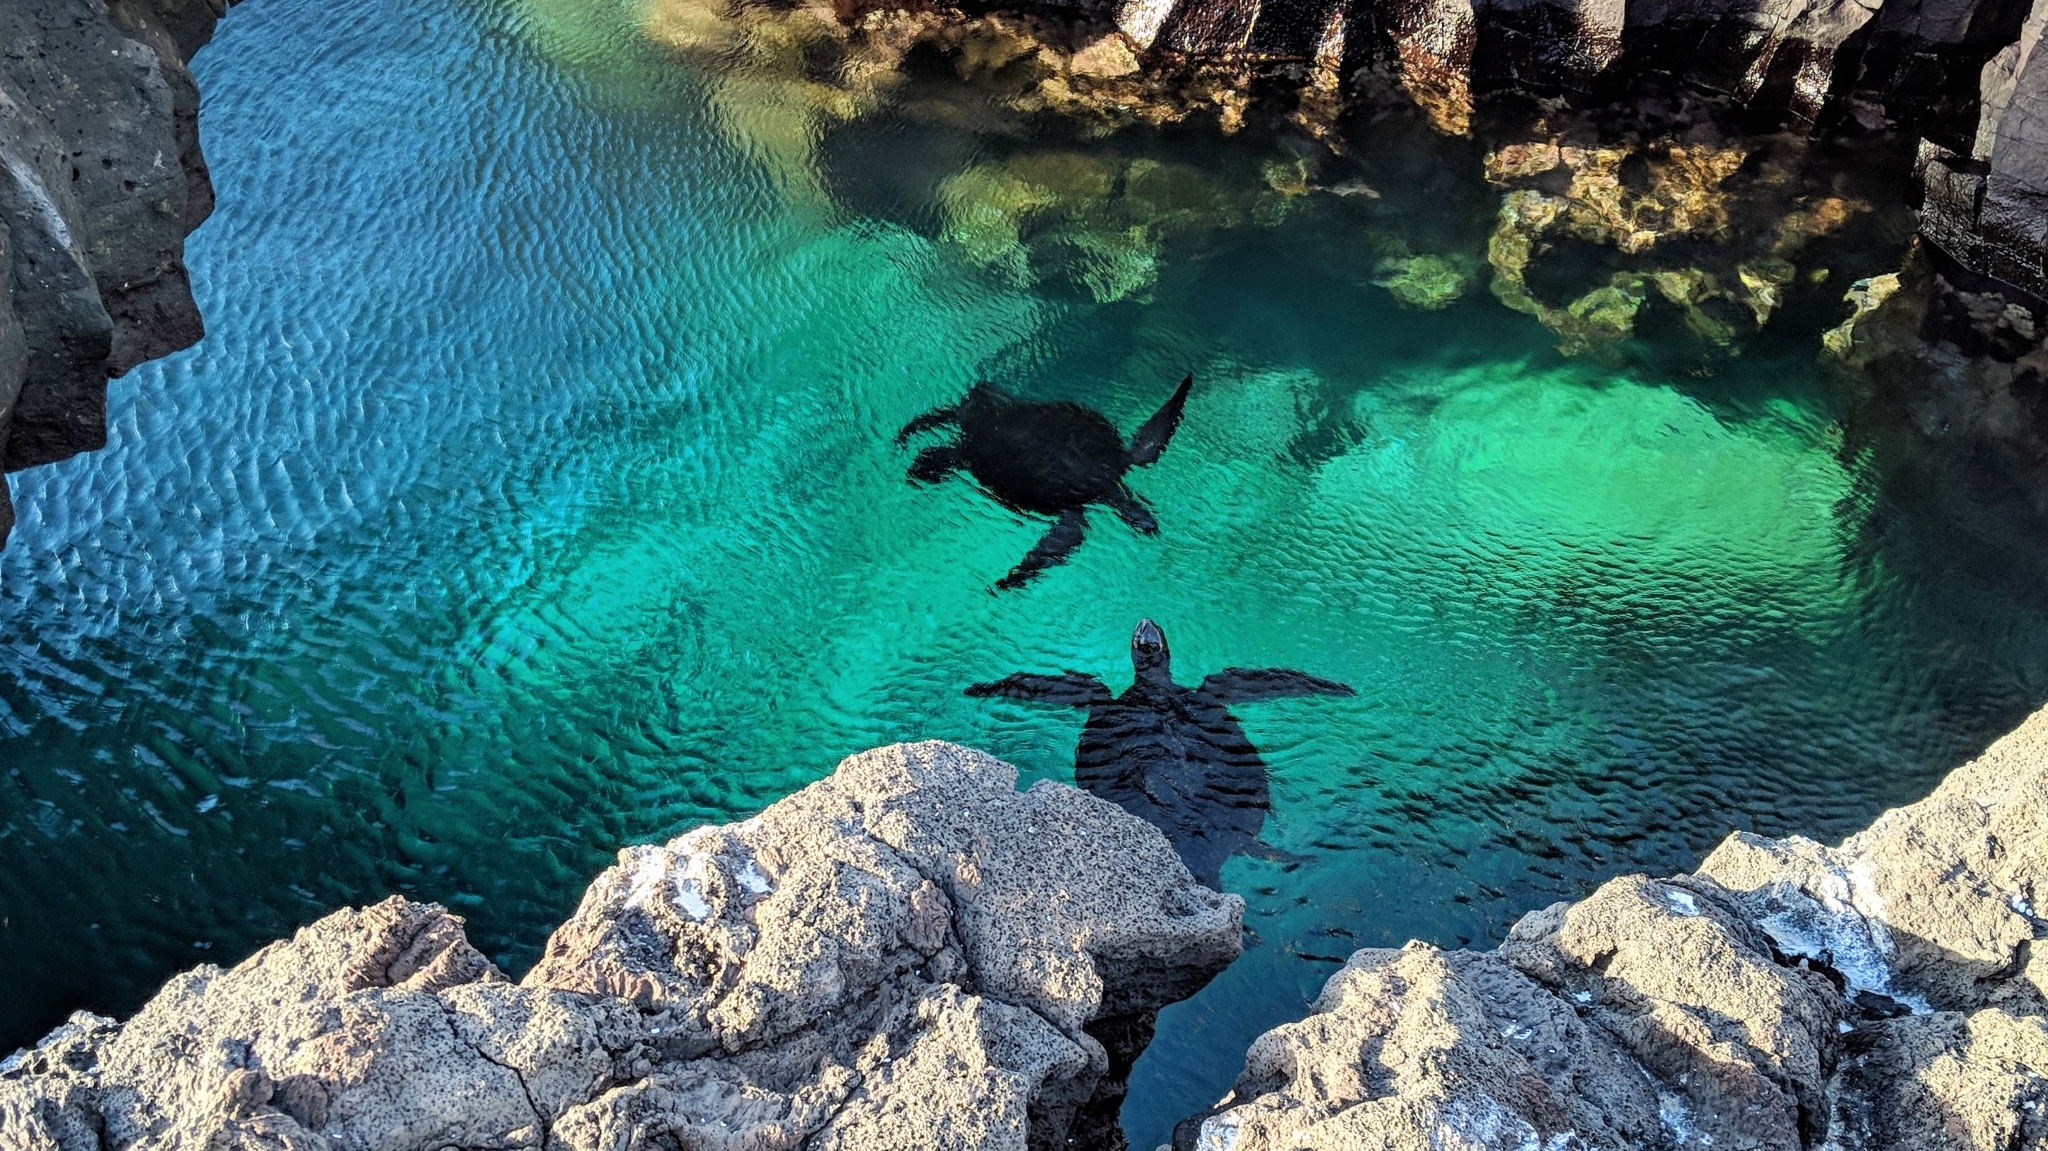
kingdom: Animalia
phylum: Chordata
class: Testudines
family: Cheloniidae
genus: Chelonia
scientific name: Chelonia mydas
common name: Green turtle
